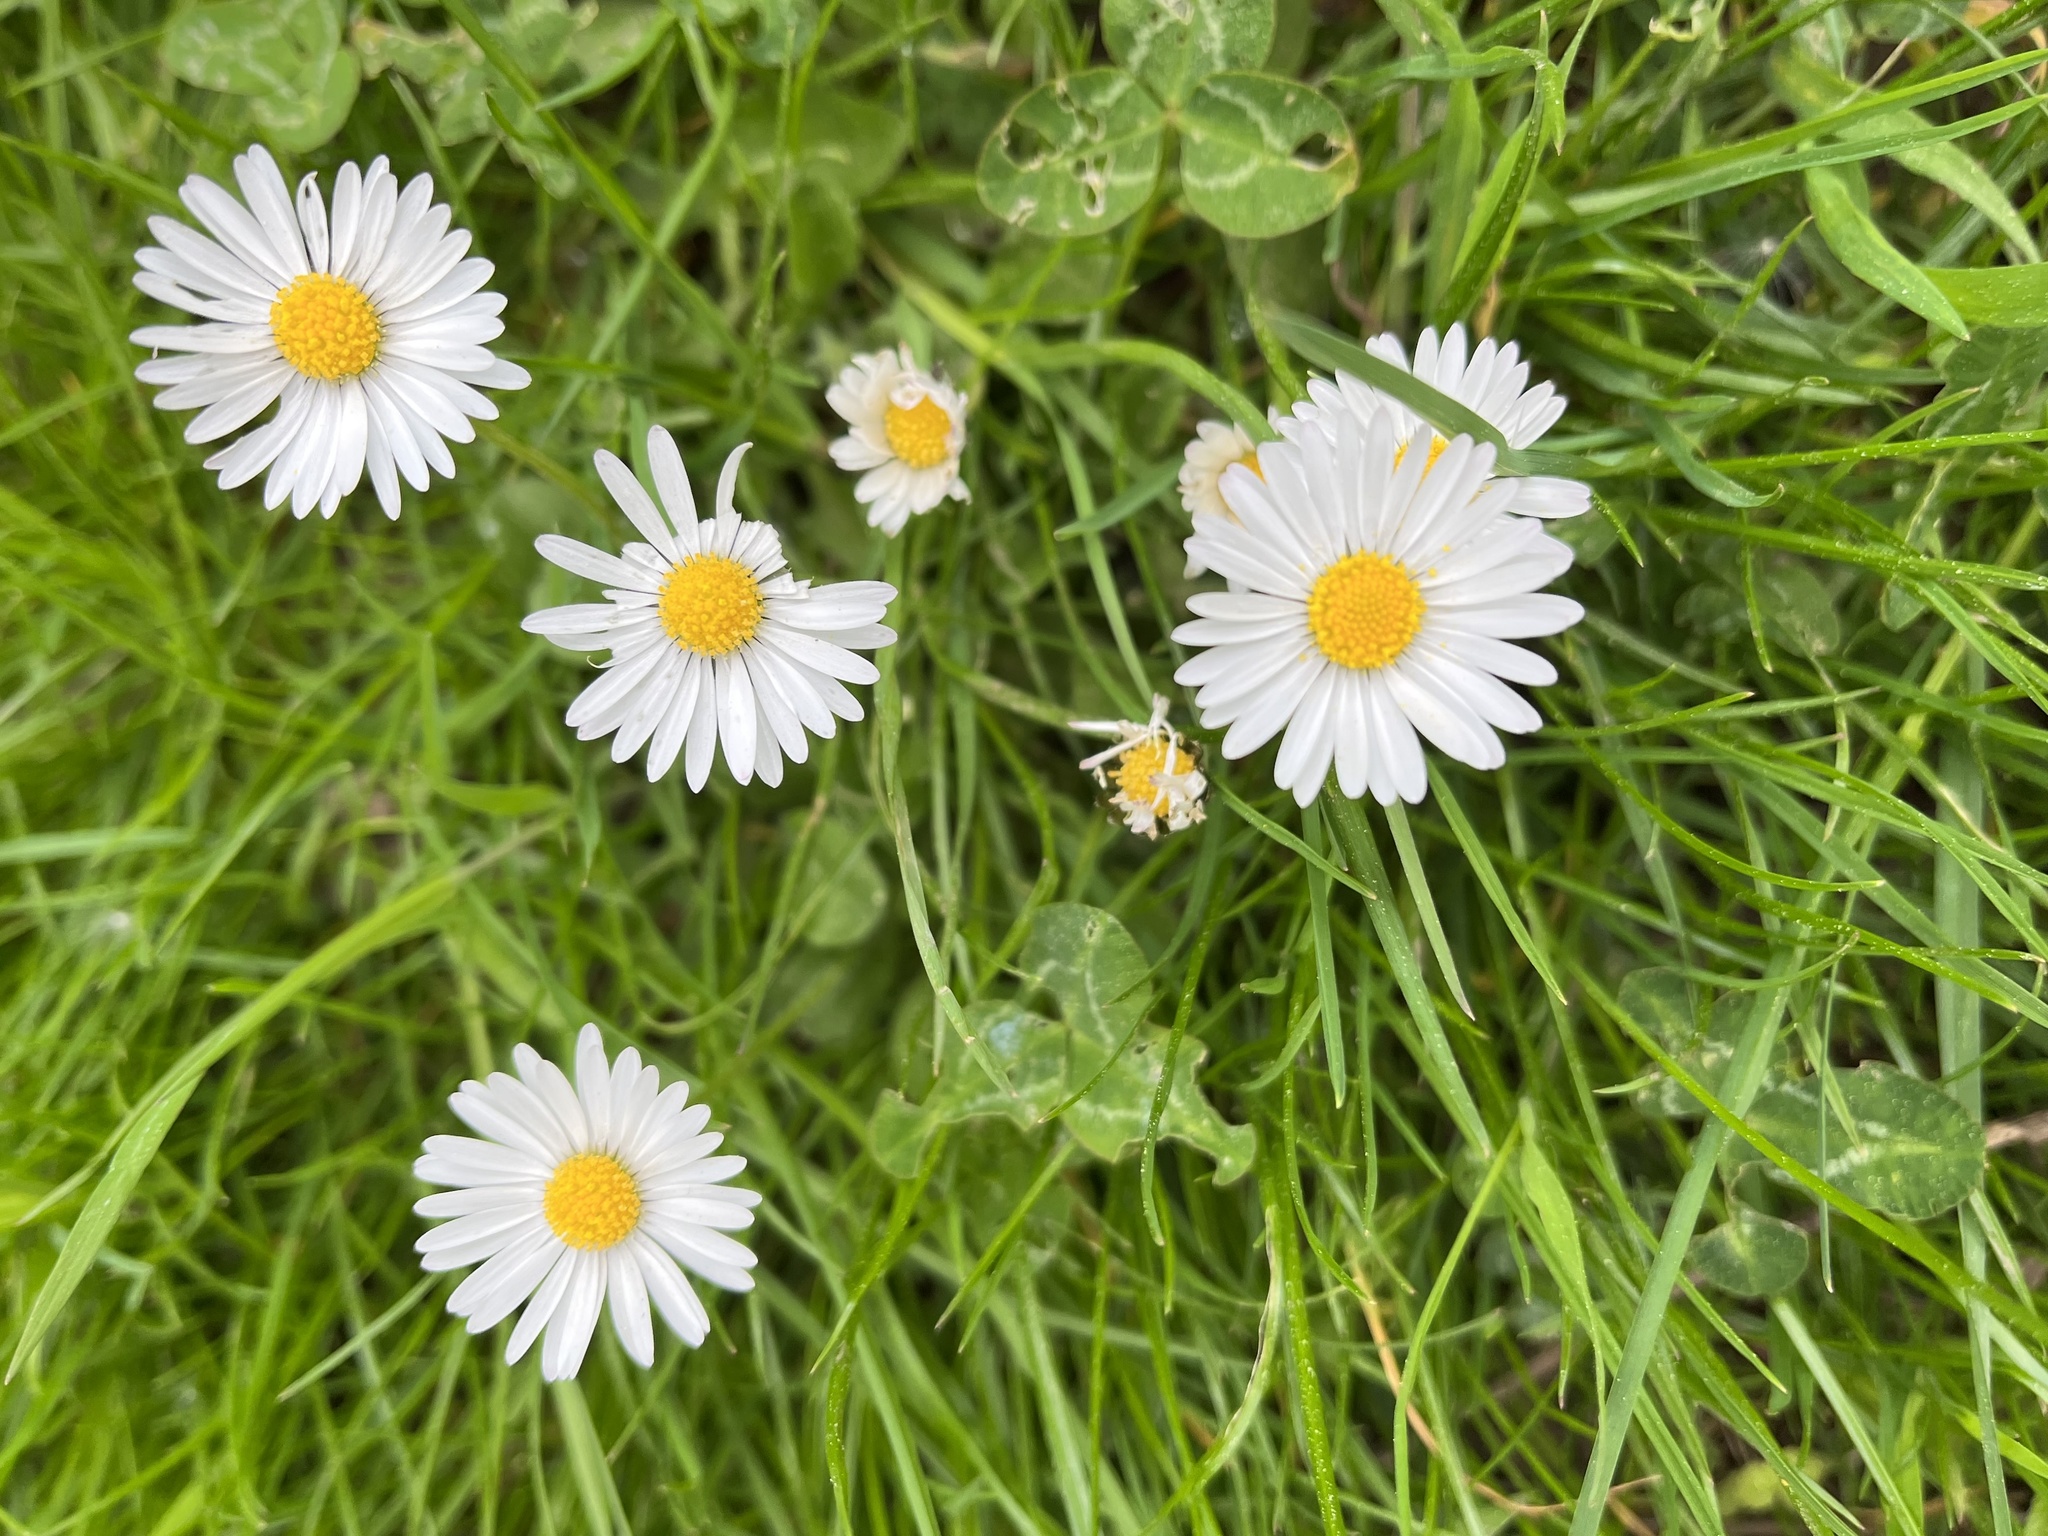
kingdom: Plantae
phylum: Tracheophyta
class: Magnoliopsida
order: Asterales
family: Asteraceae
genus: Bellis
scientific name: Bellis perennis
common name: Lawndaisy
